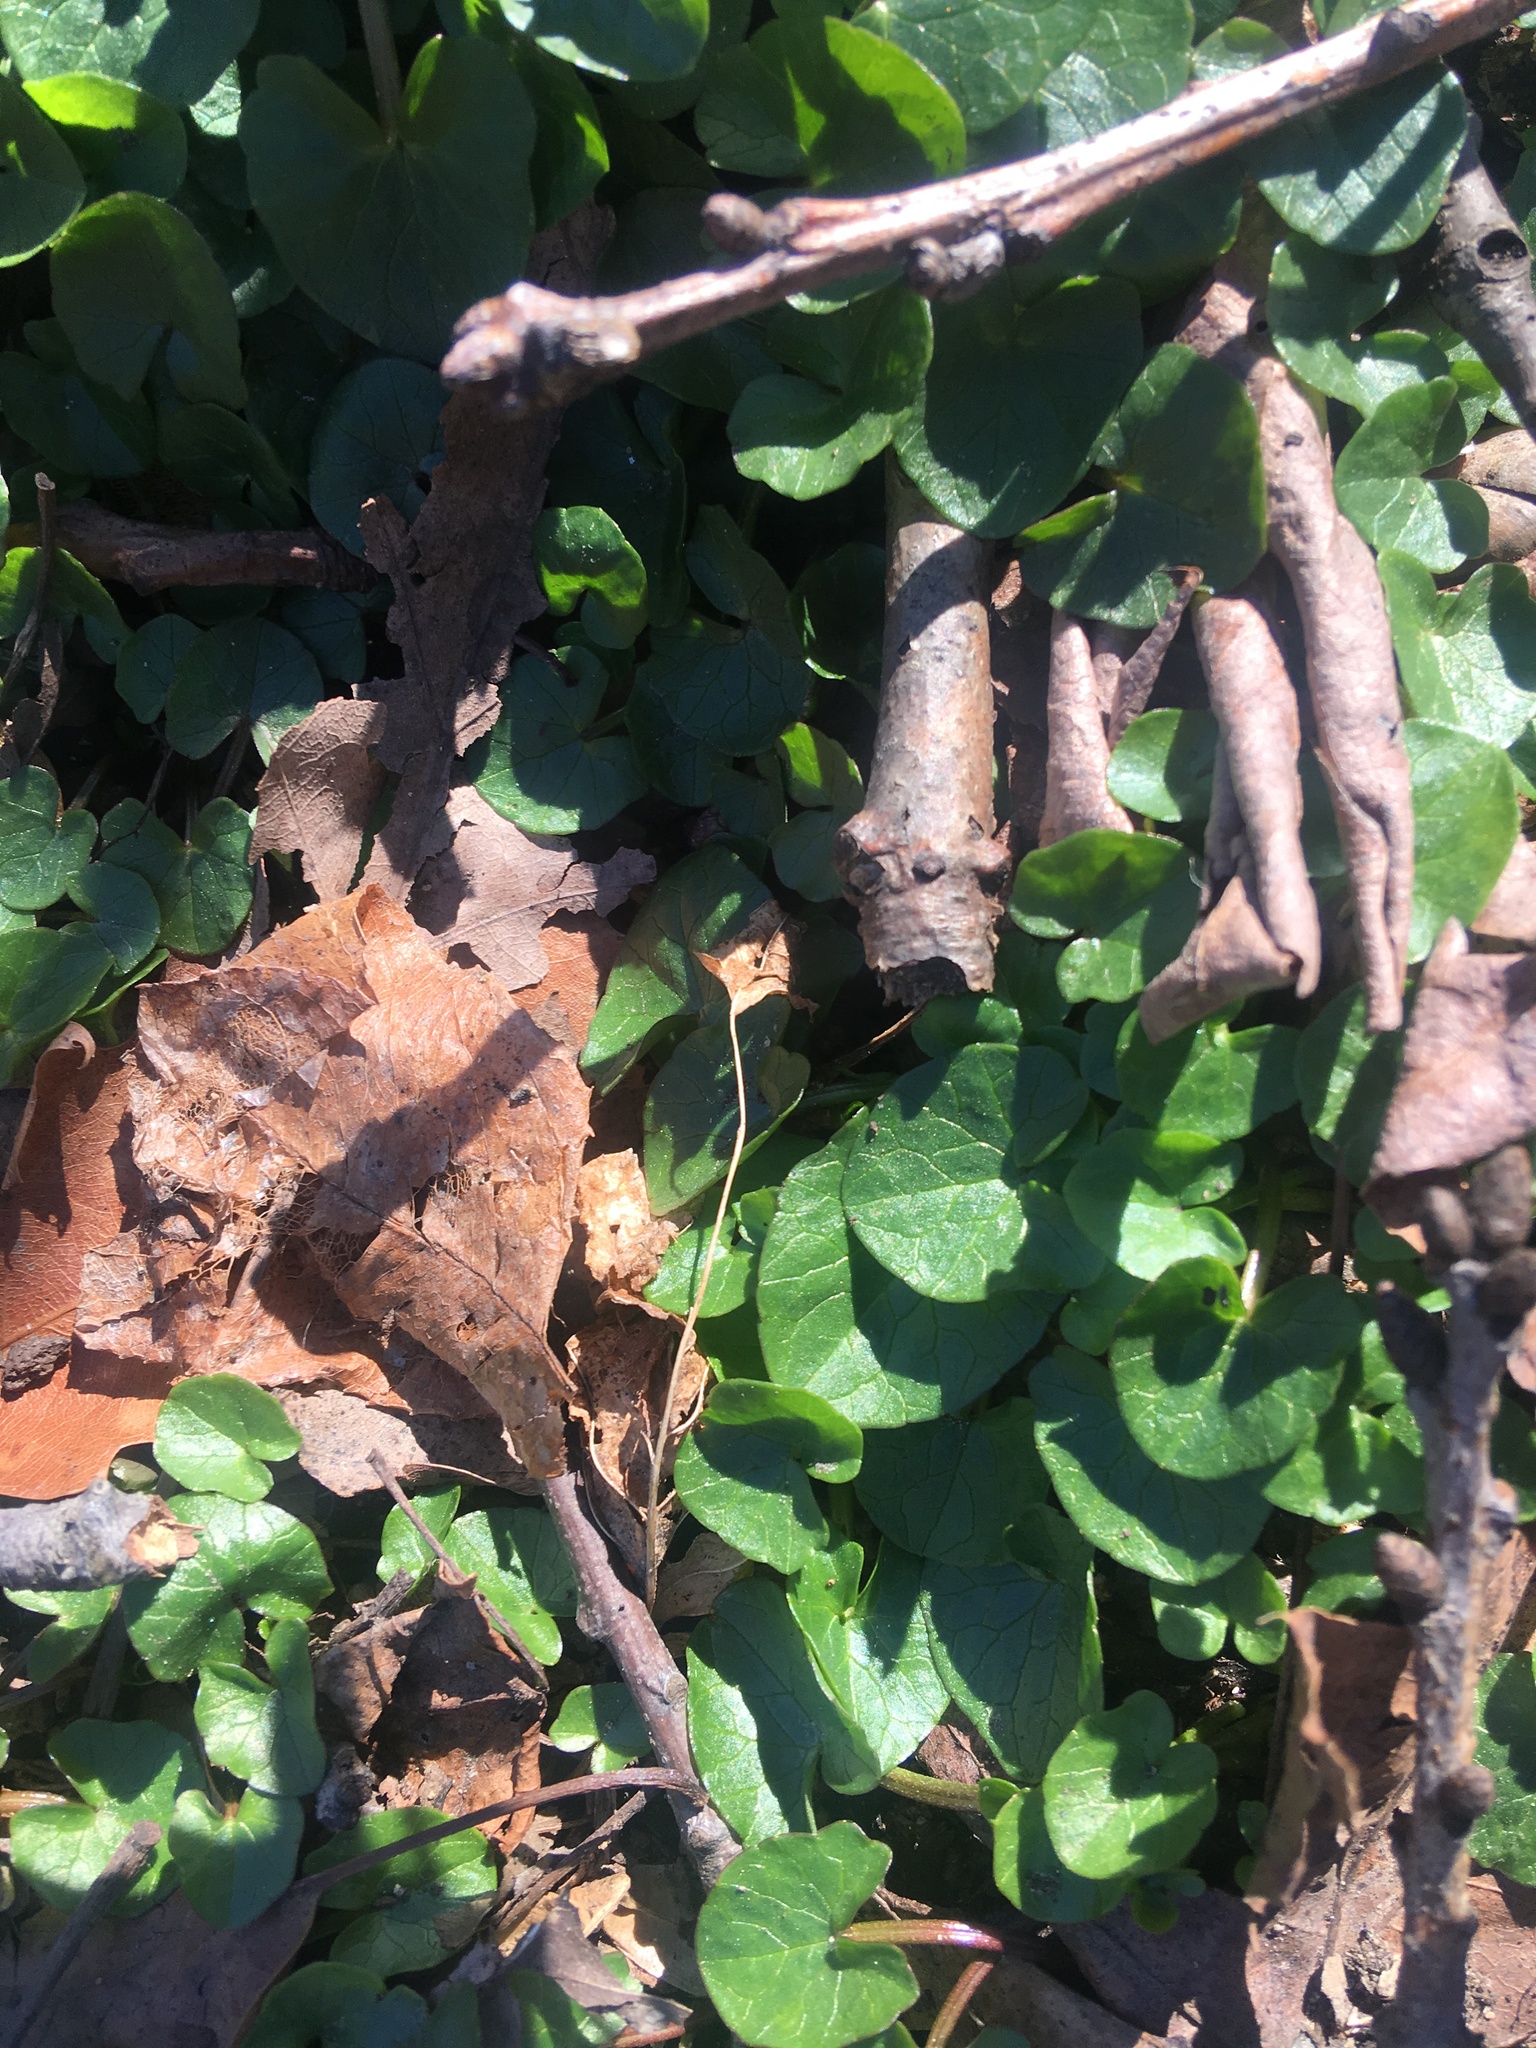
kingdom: Plantae
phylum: Tracheophyta
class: Magnoliopsida
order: Ranunculales
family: Ranunculaceae
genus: Ficaria
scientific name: Ficaria verna
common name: Lesser celandine
